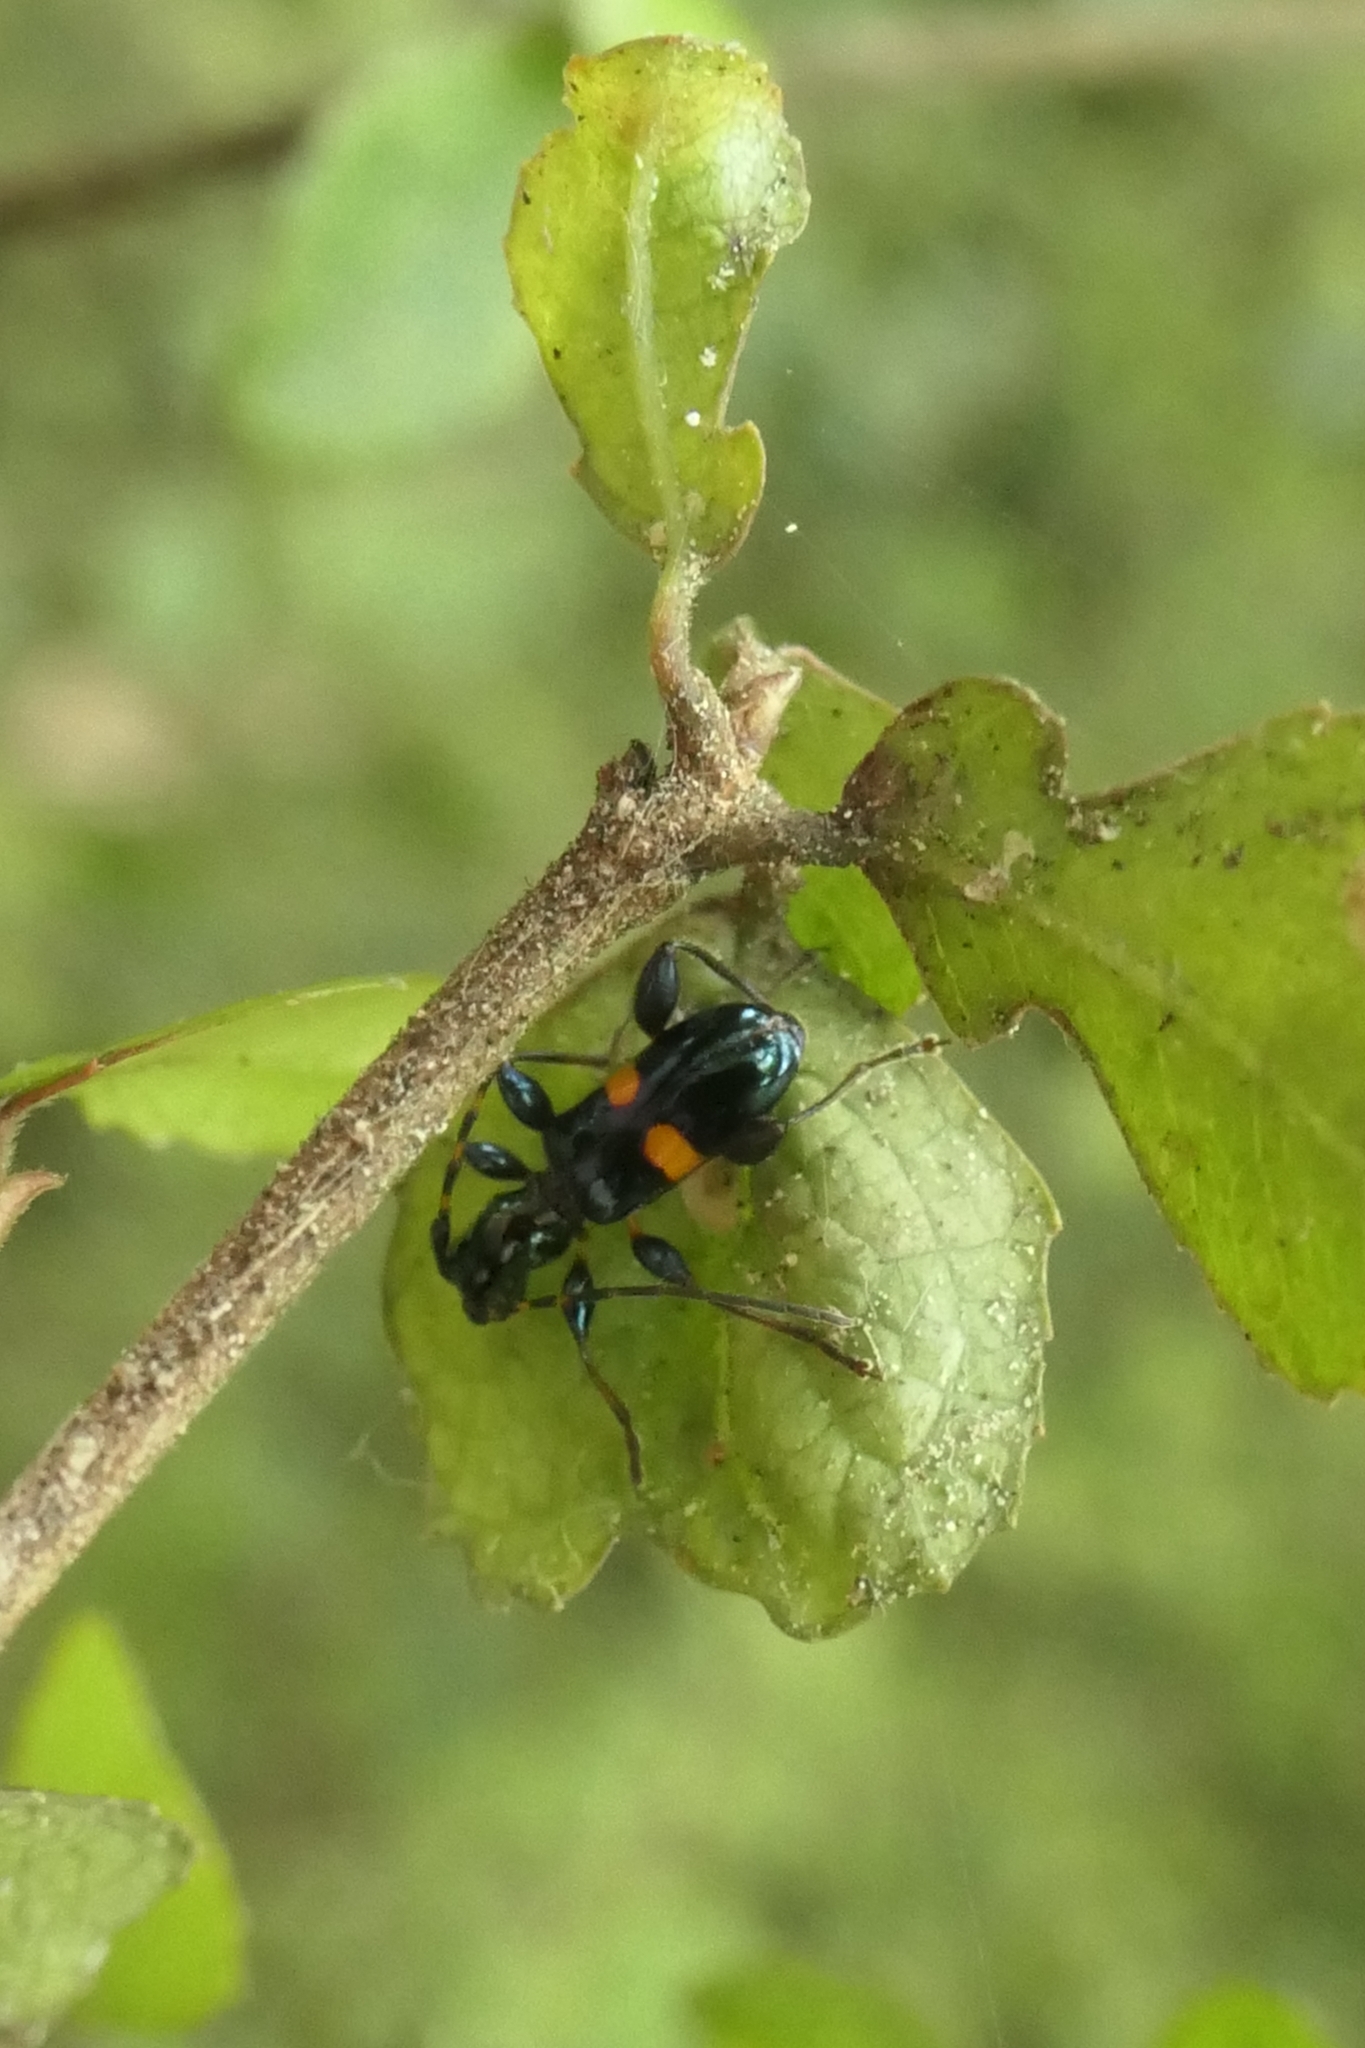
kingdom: Animalia
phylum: Arthropoda
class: Insecta
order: Coleoptera
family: Cerambycidae
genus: Zorion
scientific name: Zorion guttigerum
